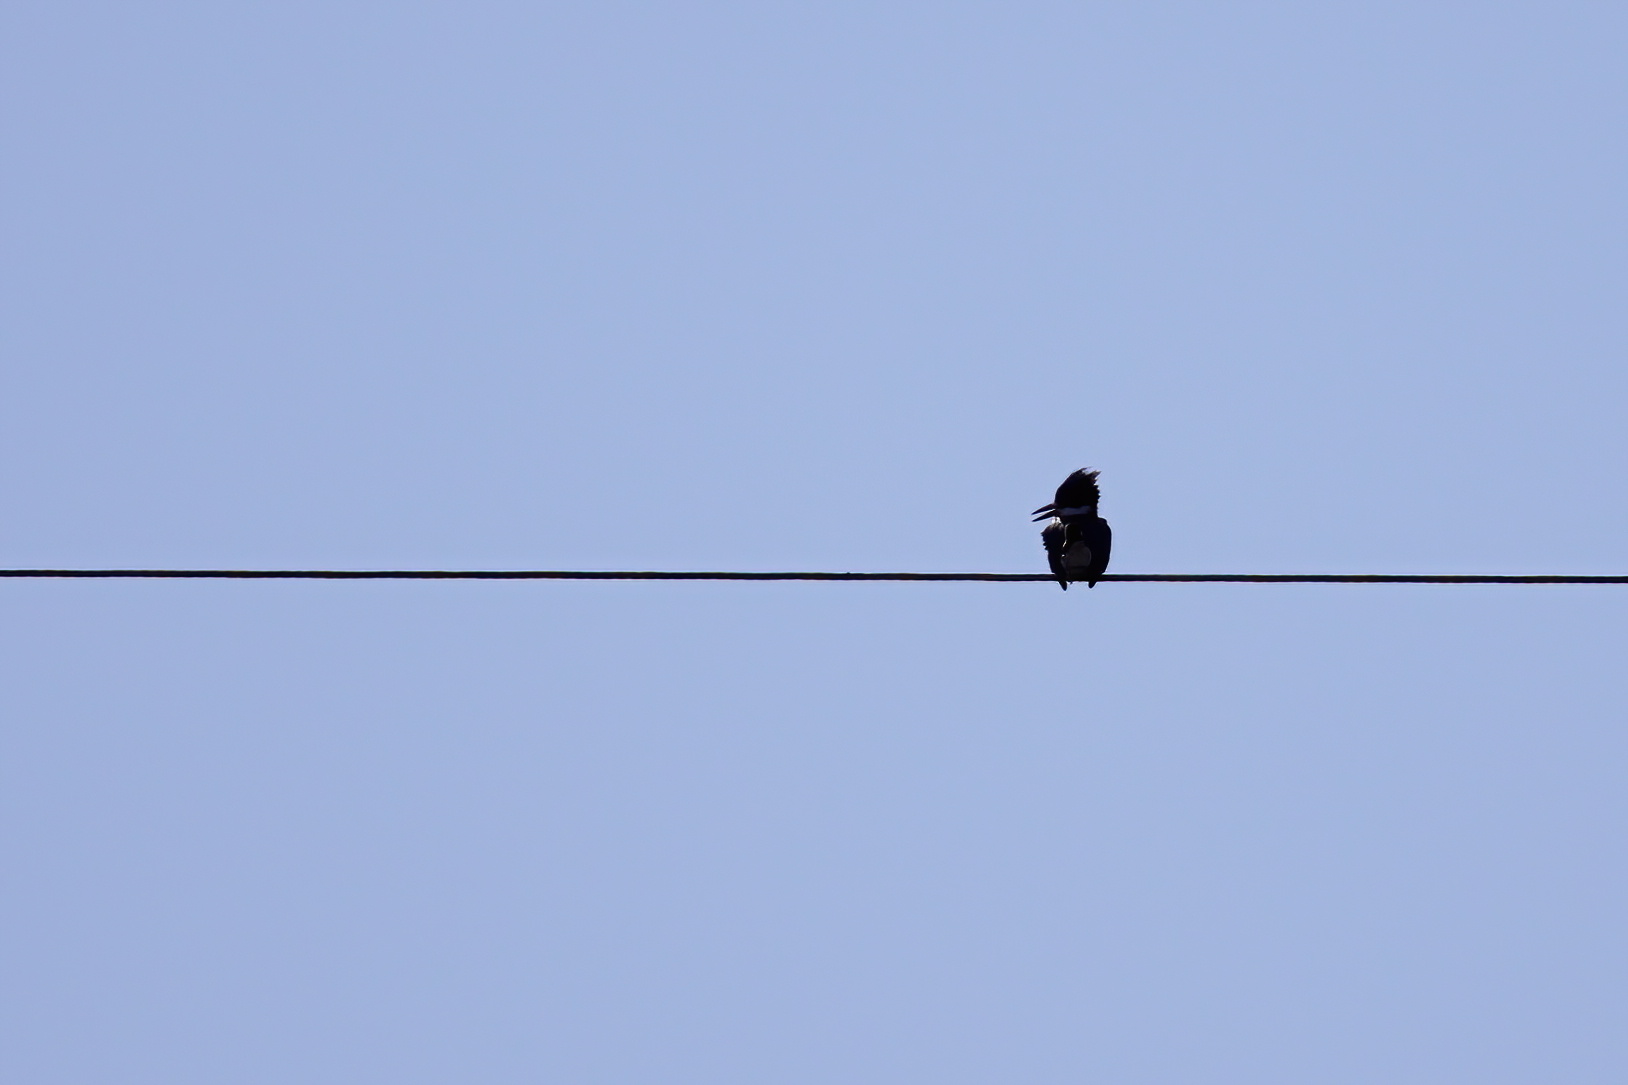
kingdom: Animalia
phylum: Chordata
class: Aves
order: Coraciiformes
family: Alcedinidae
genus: Megaceryle
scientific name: Megaceryle alcyon
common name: Belted kingfisher
